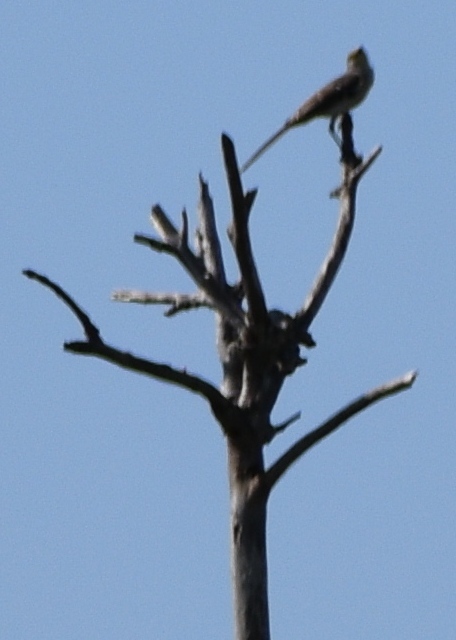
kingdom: Animalia
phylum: Chordata
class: Aves
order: Passeriformes
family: Mimidae
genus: Mimus
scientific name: Mimus polyglottos
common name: Northern mockingbird
